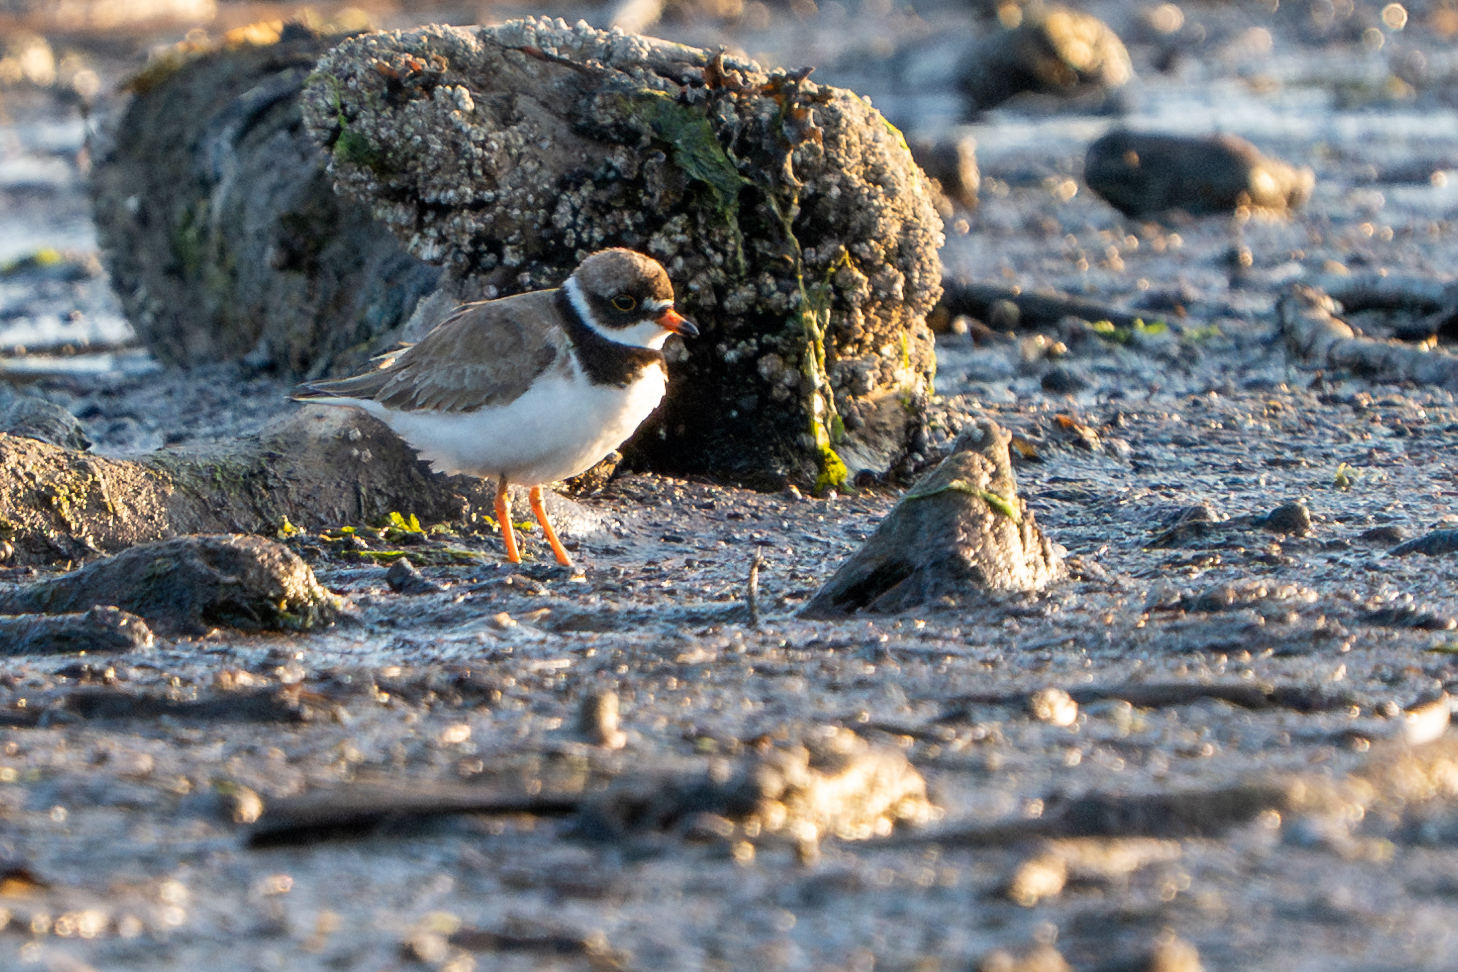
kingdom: Animalia
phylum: Chordata
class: Aves
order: Charadriiformes
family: Charadriidae
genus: Charadrius
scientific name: Charadrius semipalmatus
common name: Semipalmated plover
